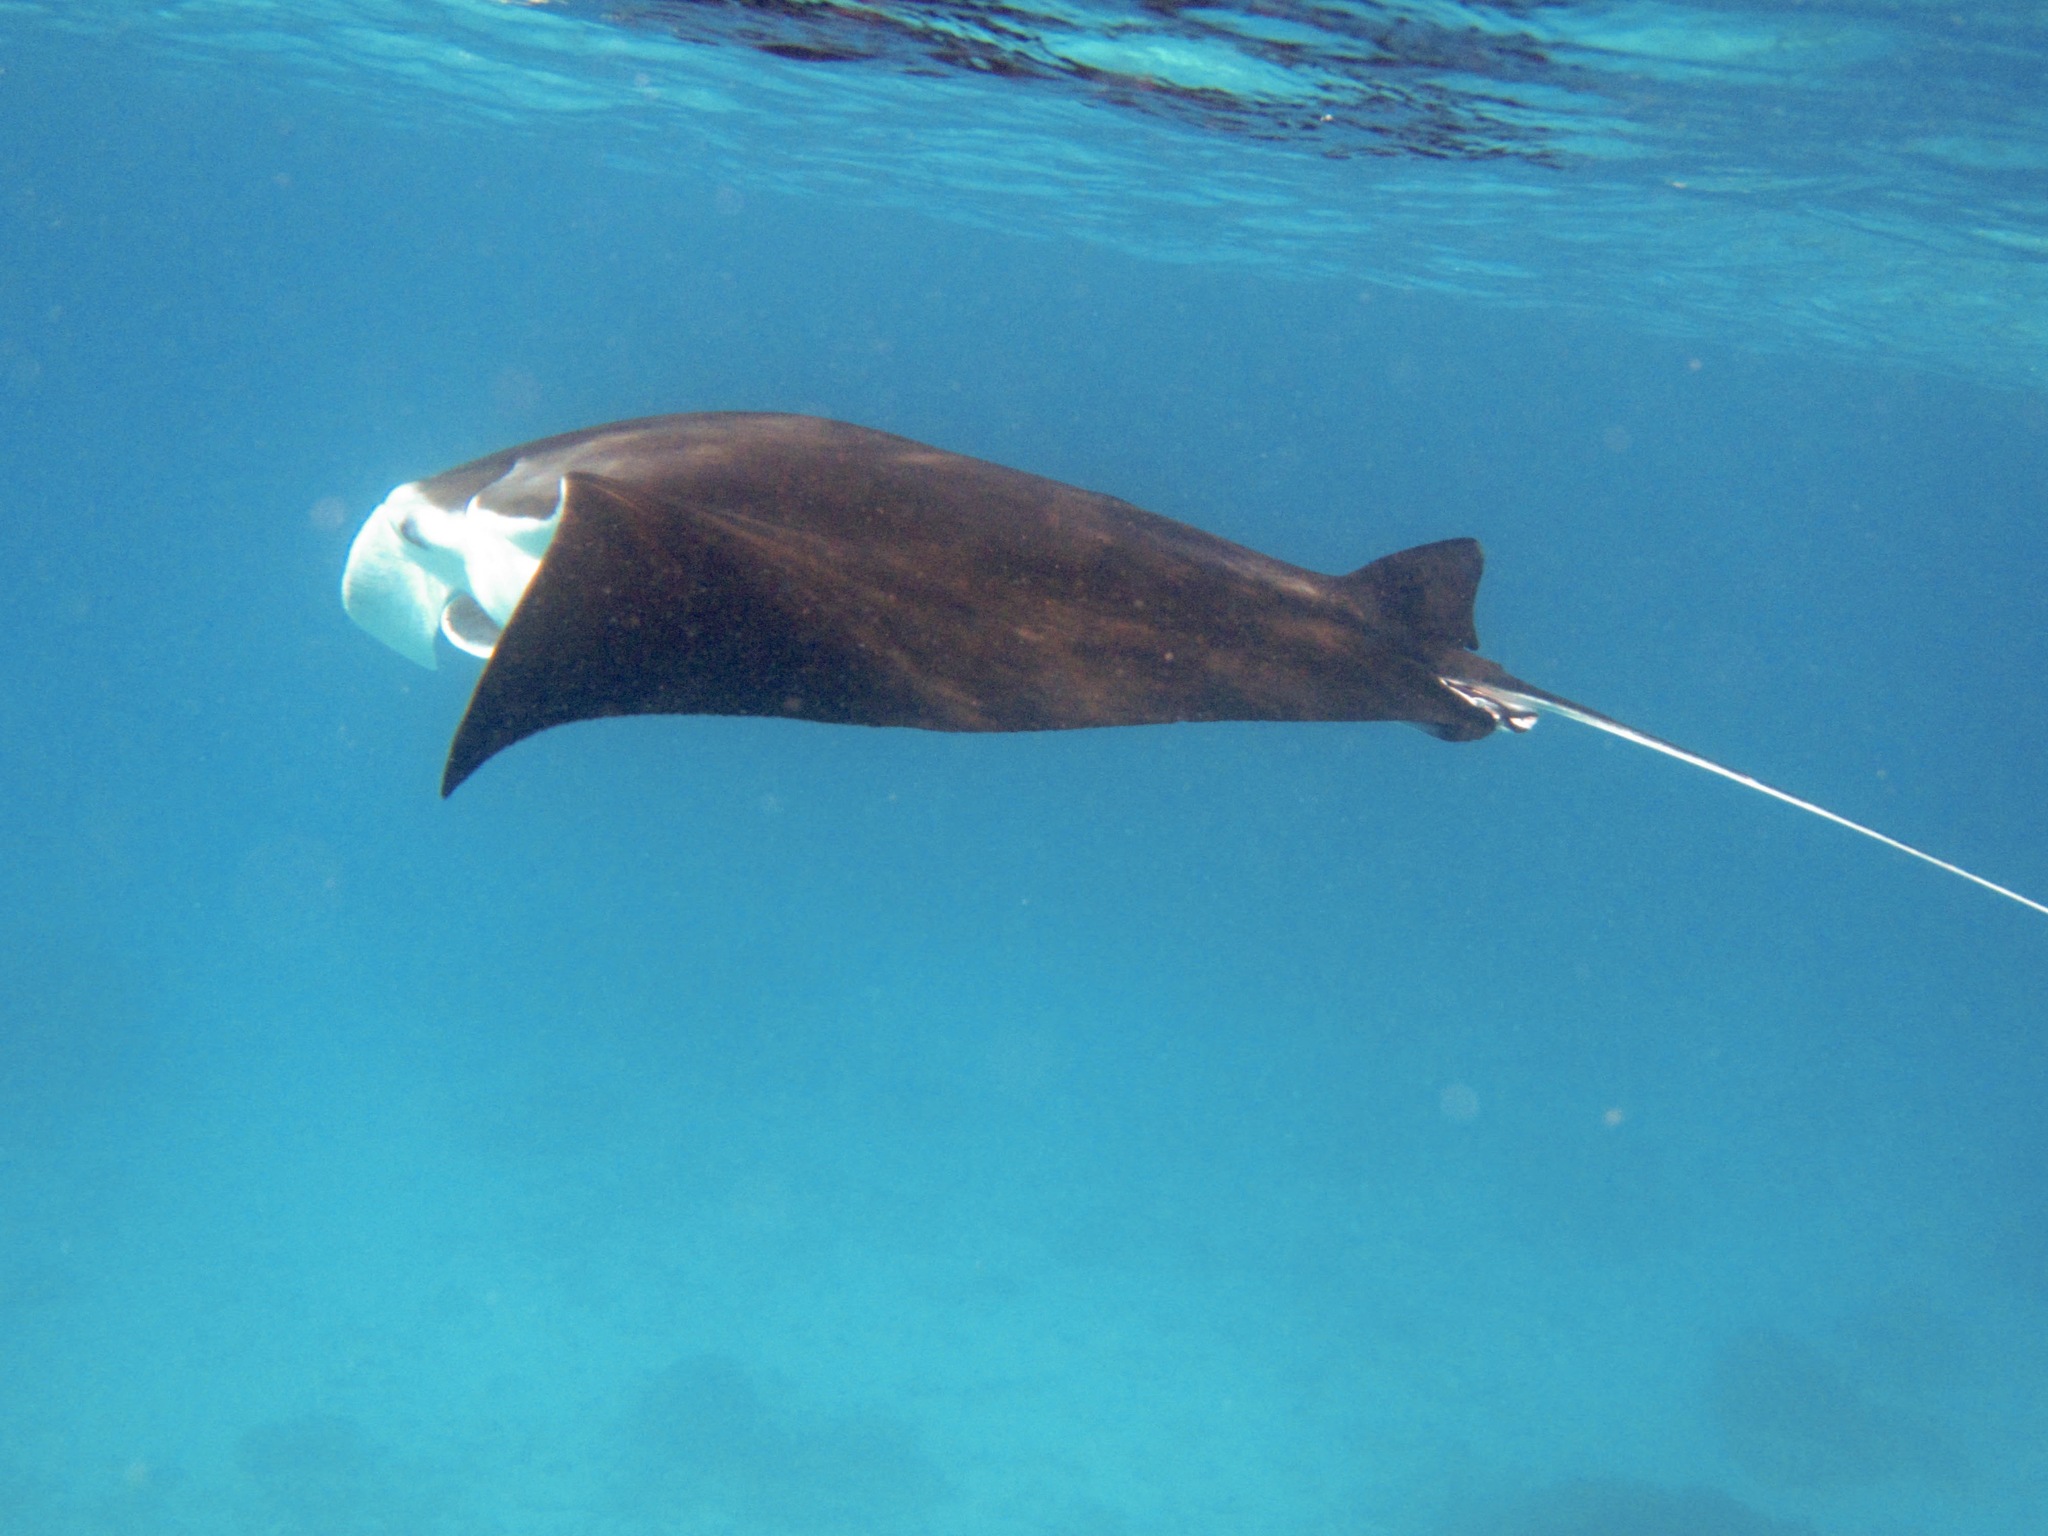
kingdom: Animalia
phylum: Chordata
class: Elasmobranchii
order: Myliobatiformes
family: Myliobatidae
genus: Mobula
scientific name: Mobula alfredi
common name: Reef manta ray
